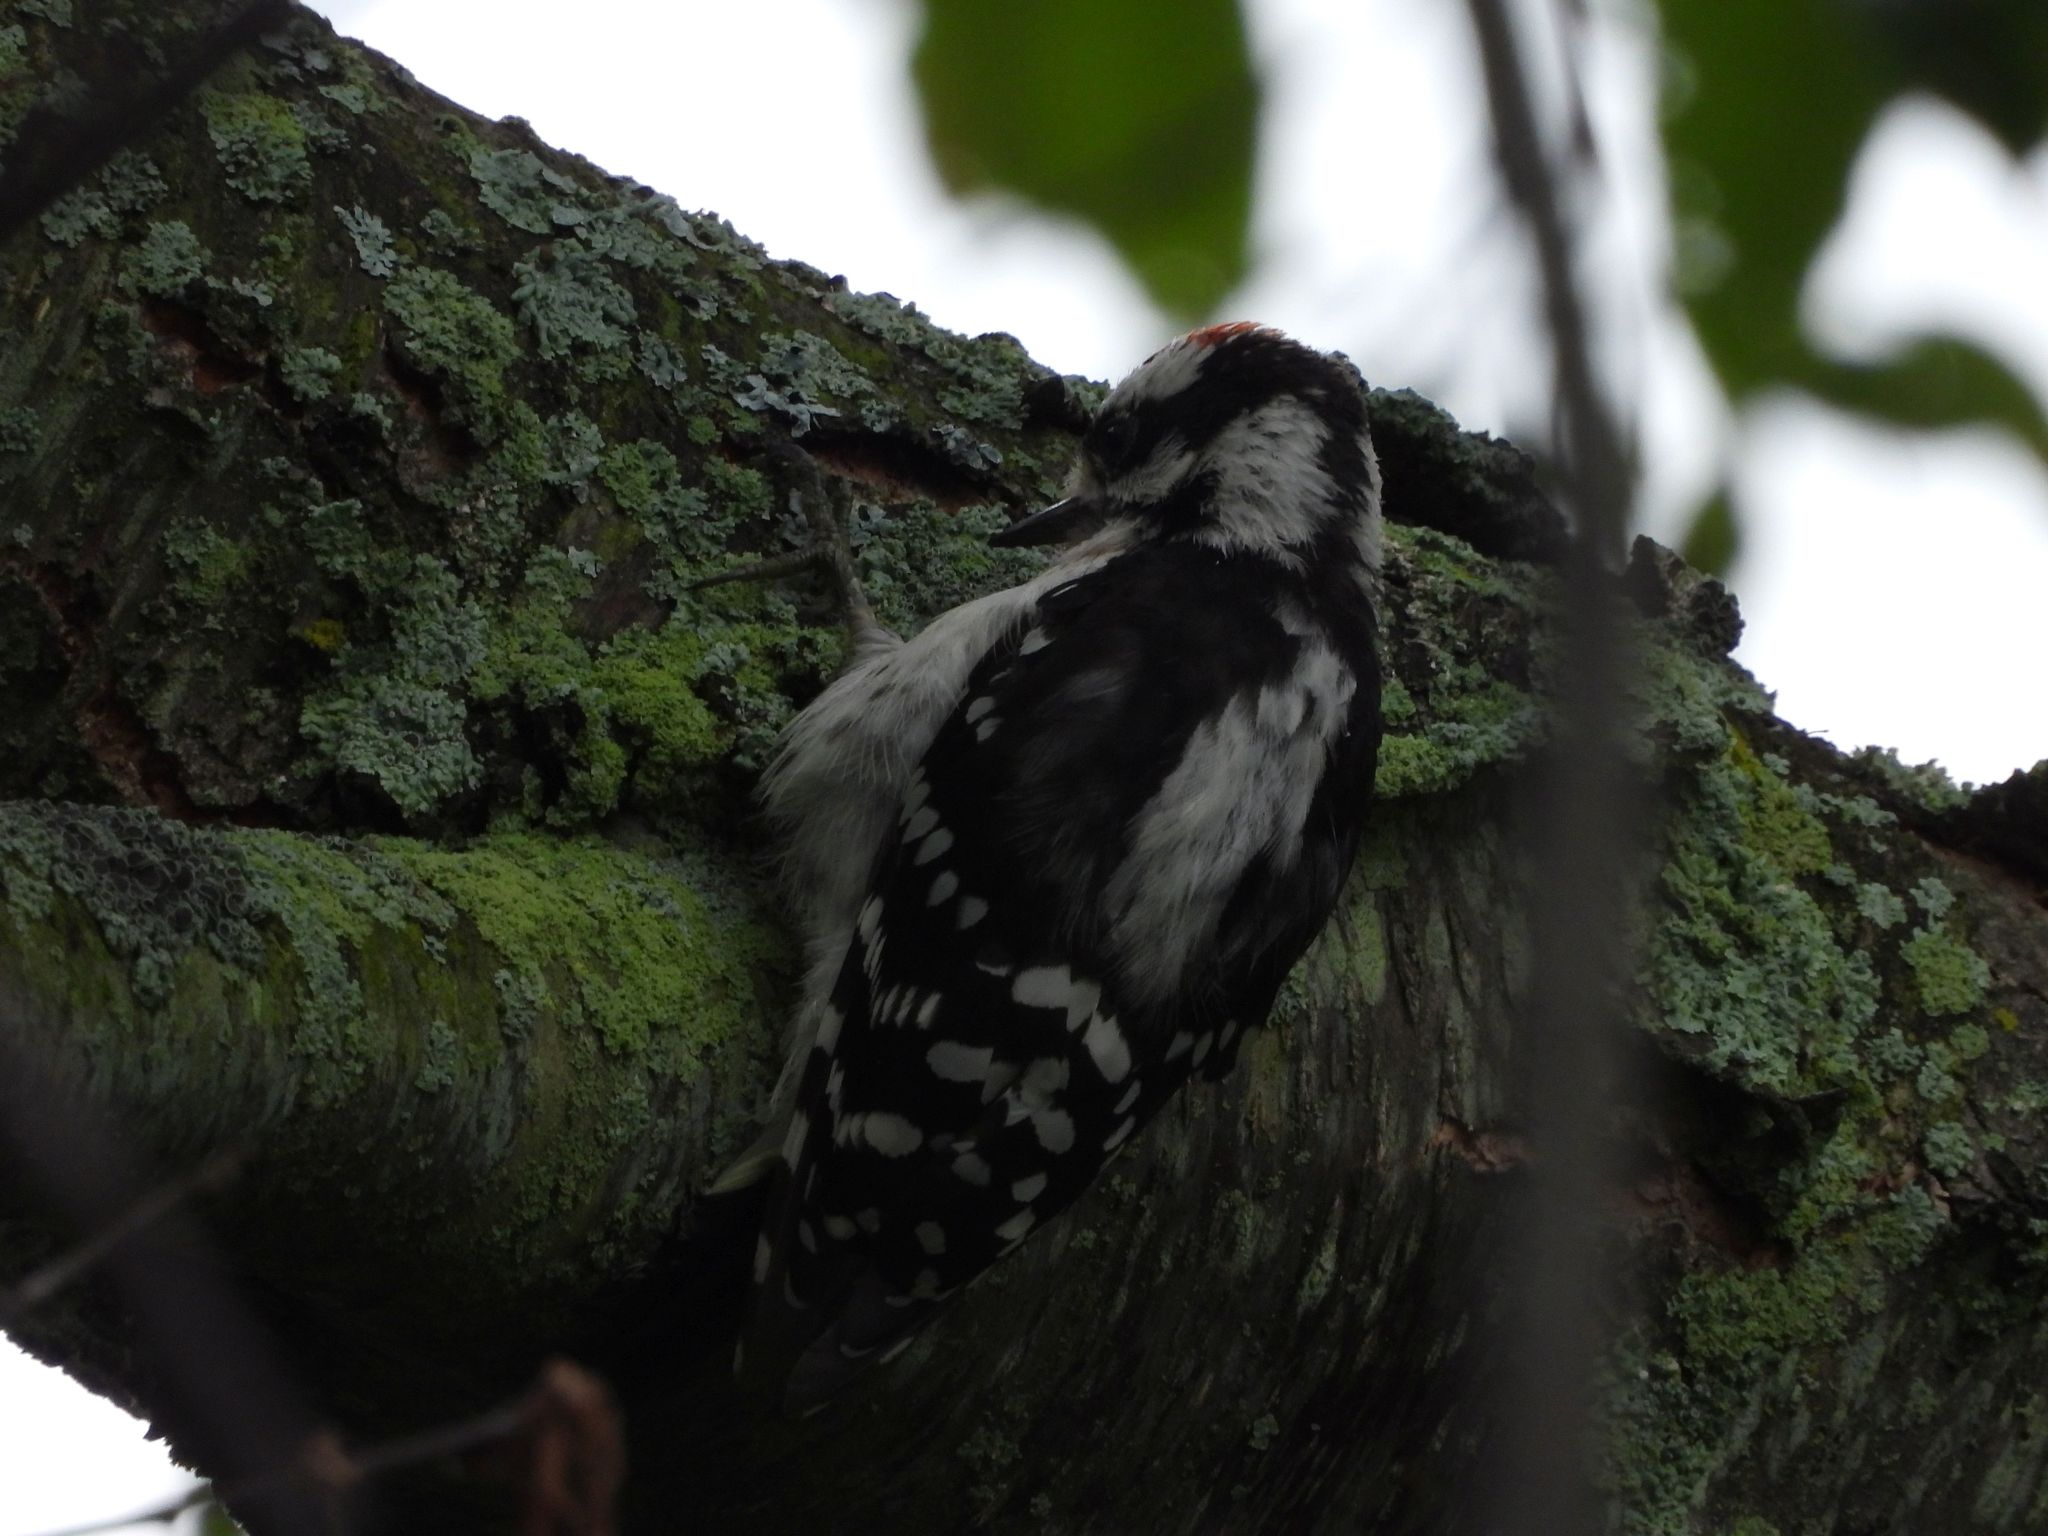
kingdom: Animalia
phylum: Chordata
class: Aves
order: Piciformes
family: Picidae
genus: Dryobates
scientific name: Dryobates pubescens
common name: Downy woodpecker
